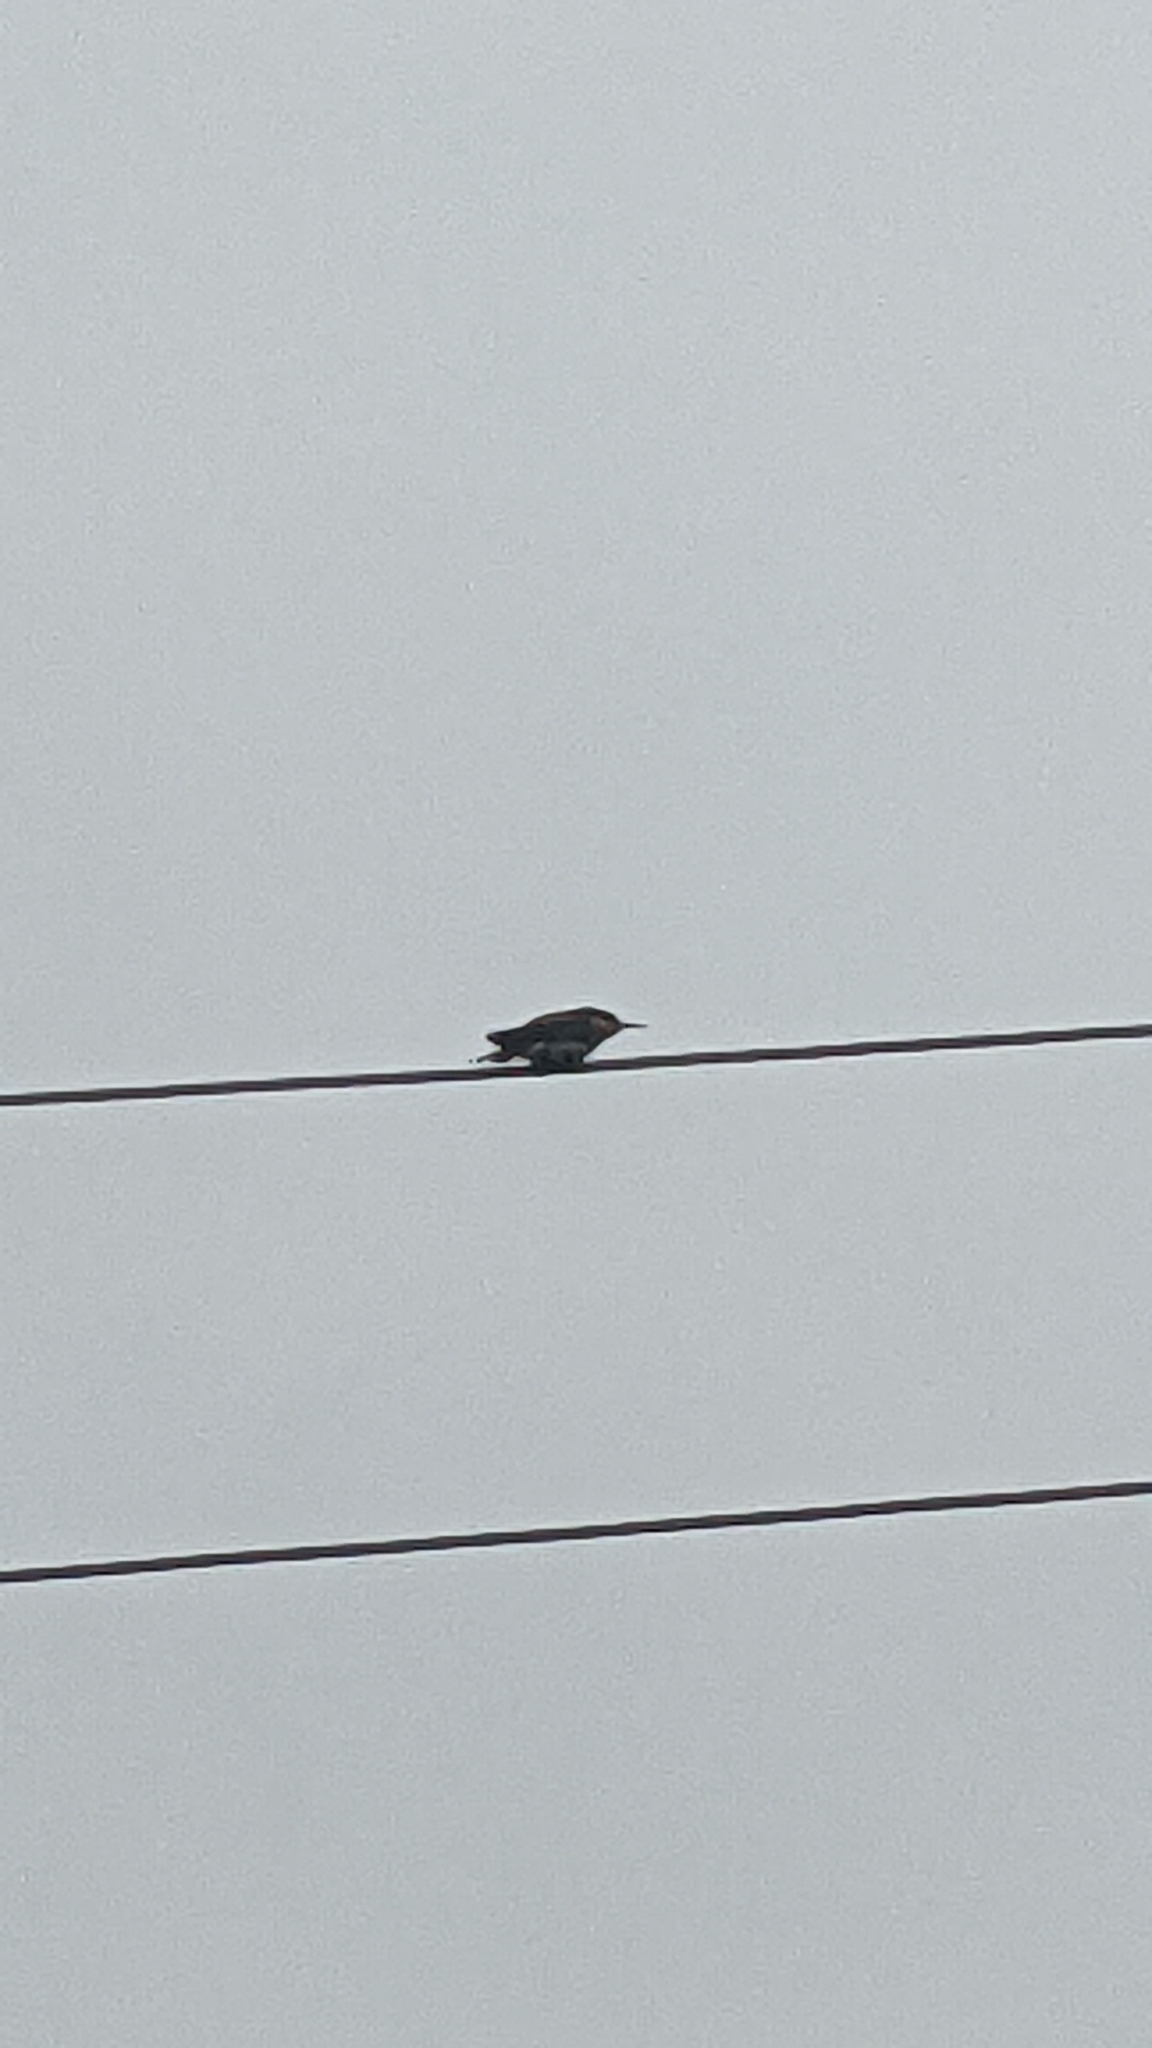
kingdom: Animalia
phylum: Chordata
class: Aves
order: Coraciiformes
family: Meropidae
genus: Merops
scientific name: Merops apiaster
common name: European bee-eater
